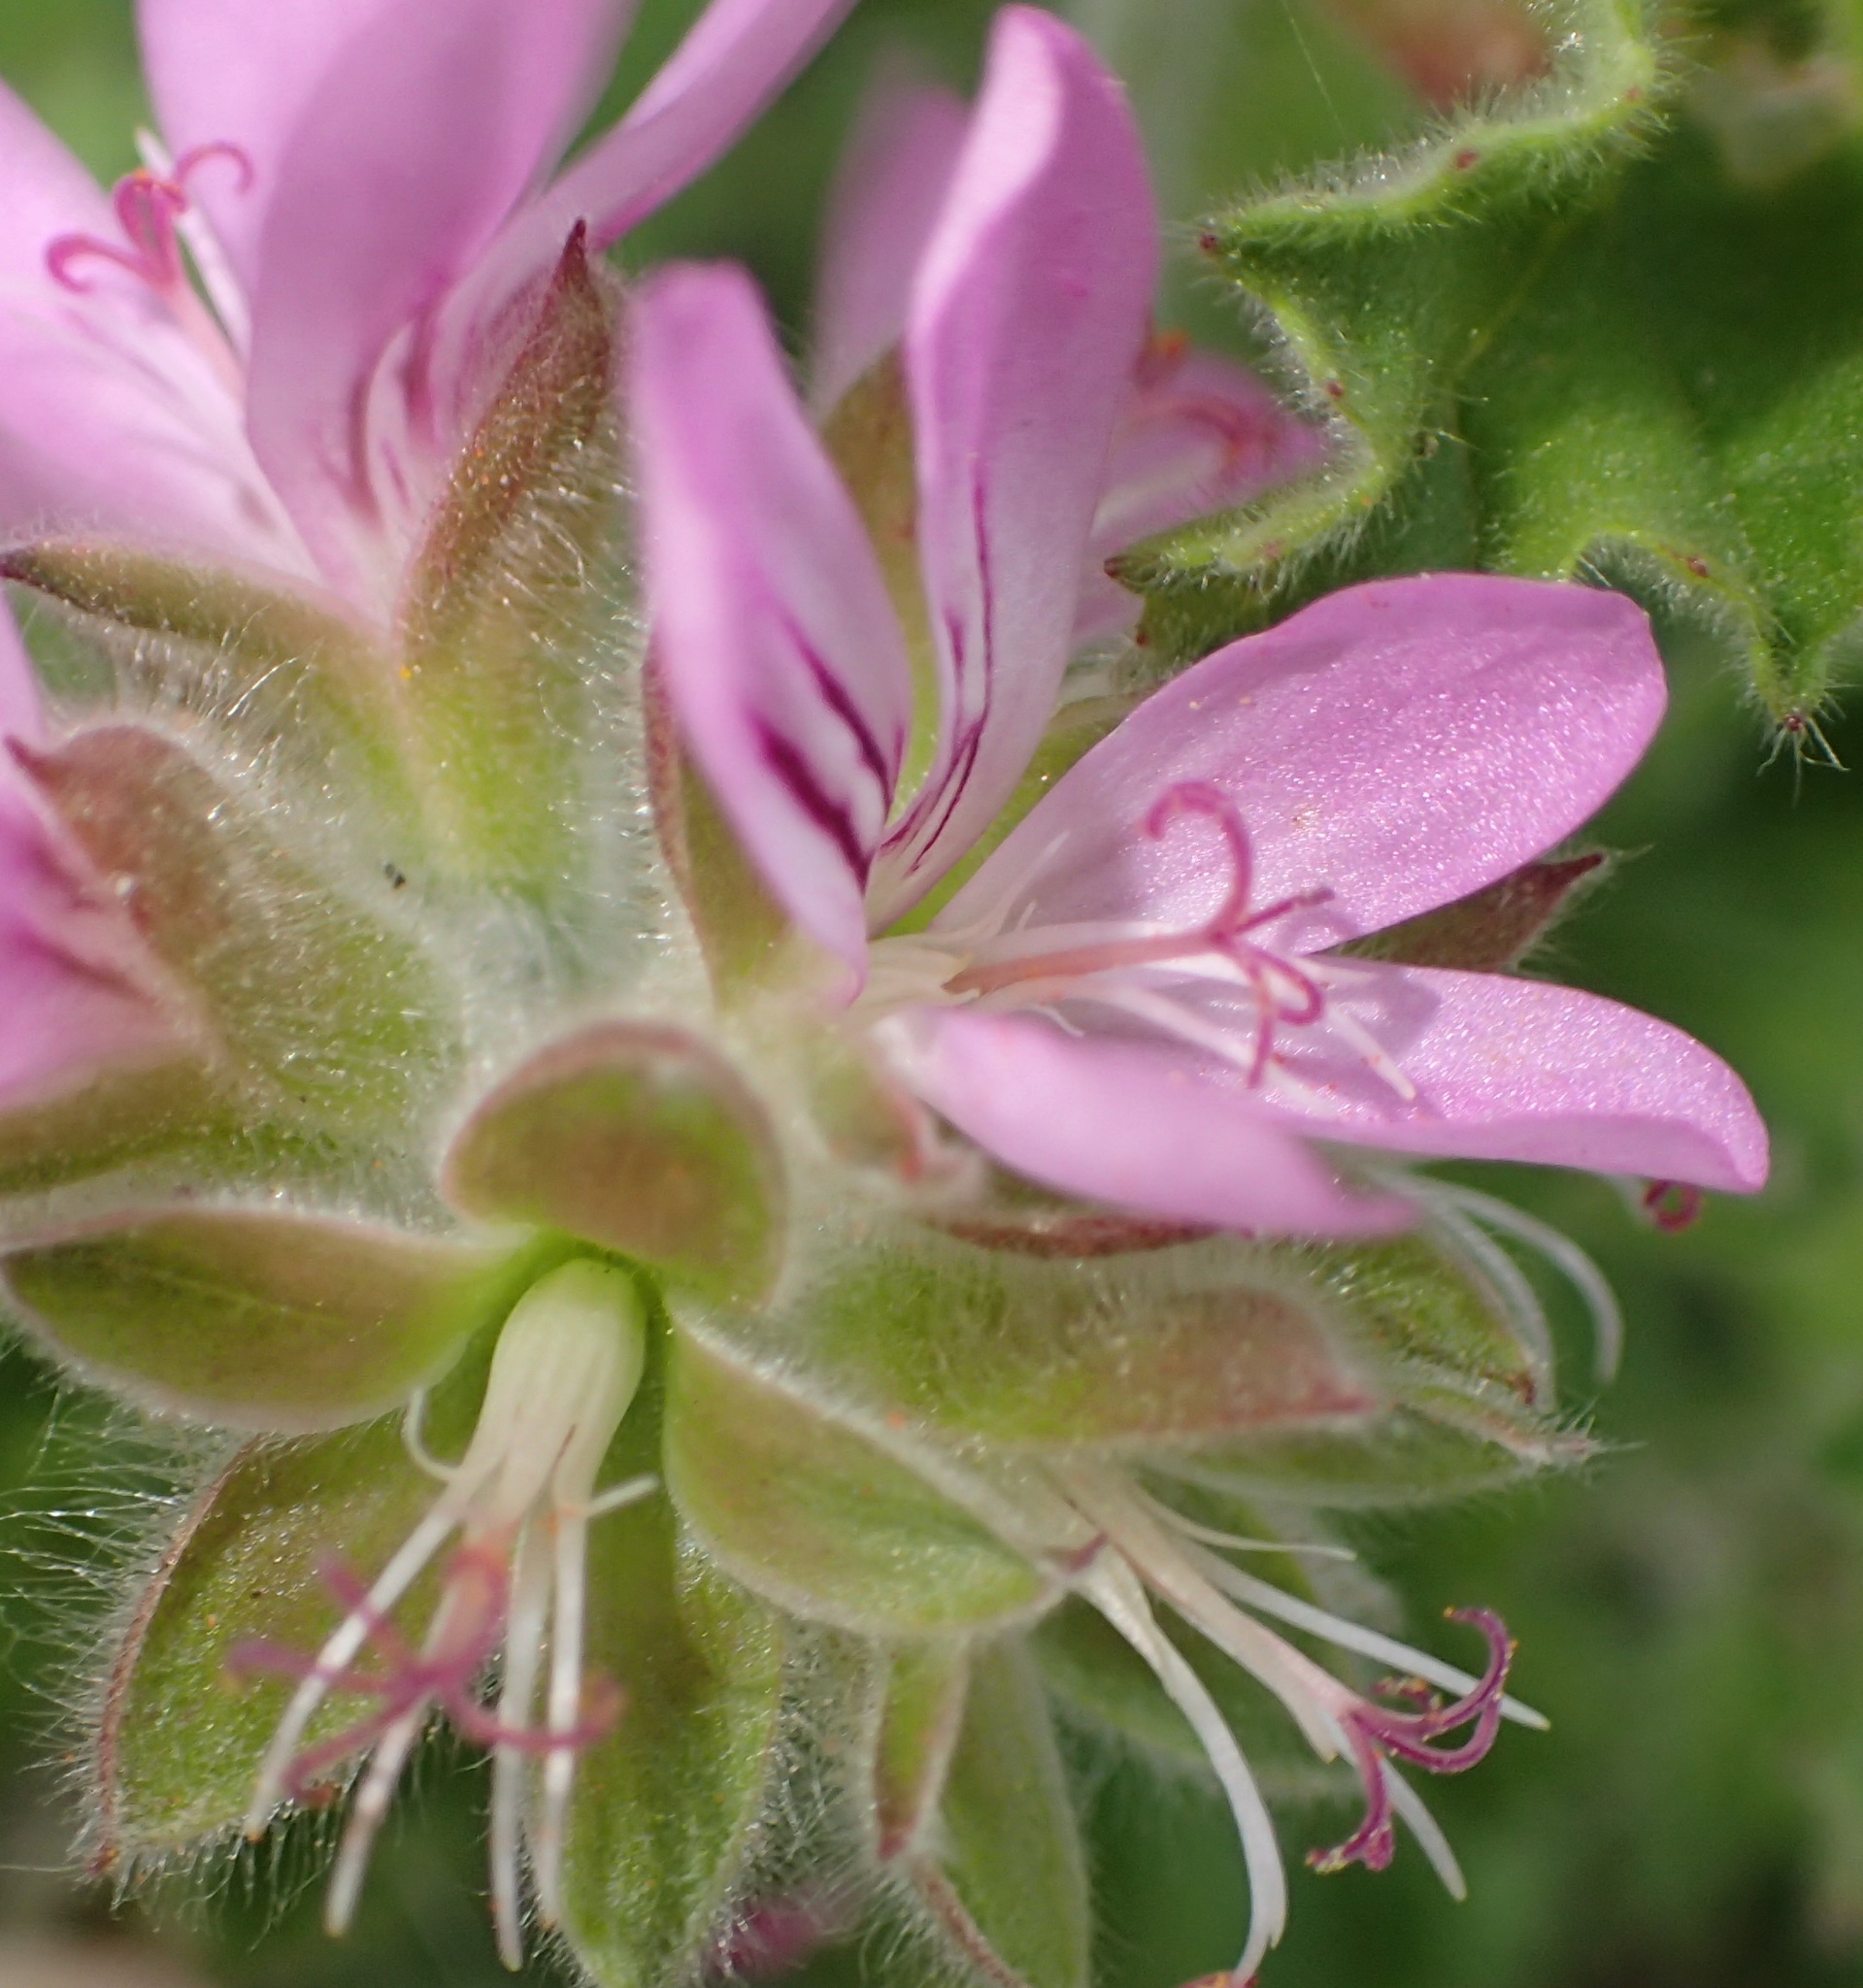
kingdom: Plantae
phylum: Tracheophyta
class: Magnoliopsida
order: Geraniales
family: Geraniaceae
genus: Pelargonium
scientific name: Pelargonium capitatum
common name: Rose scented geranium
